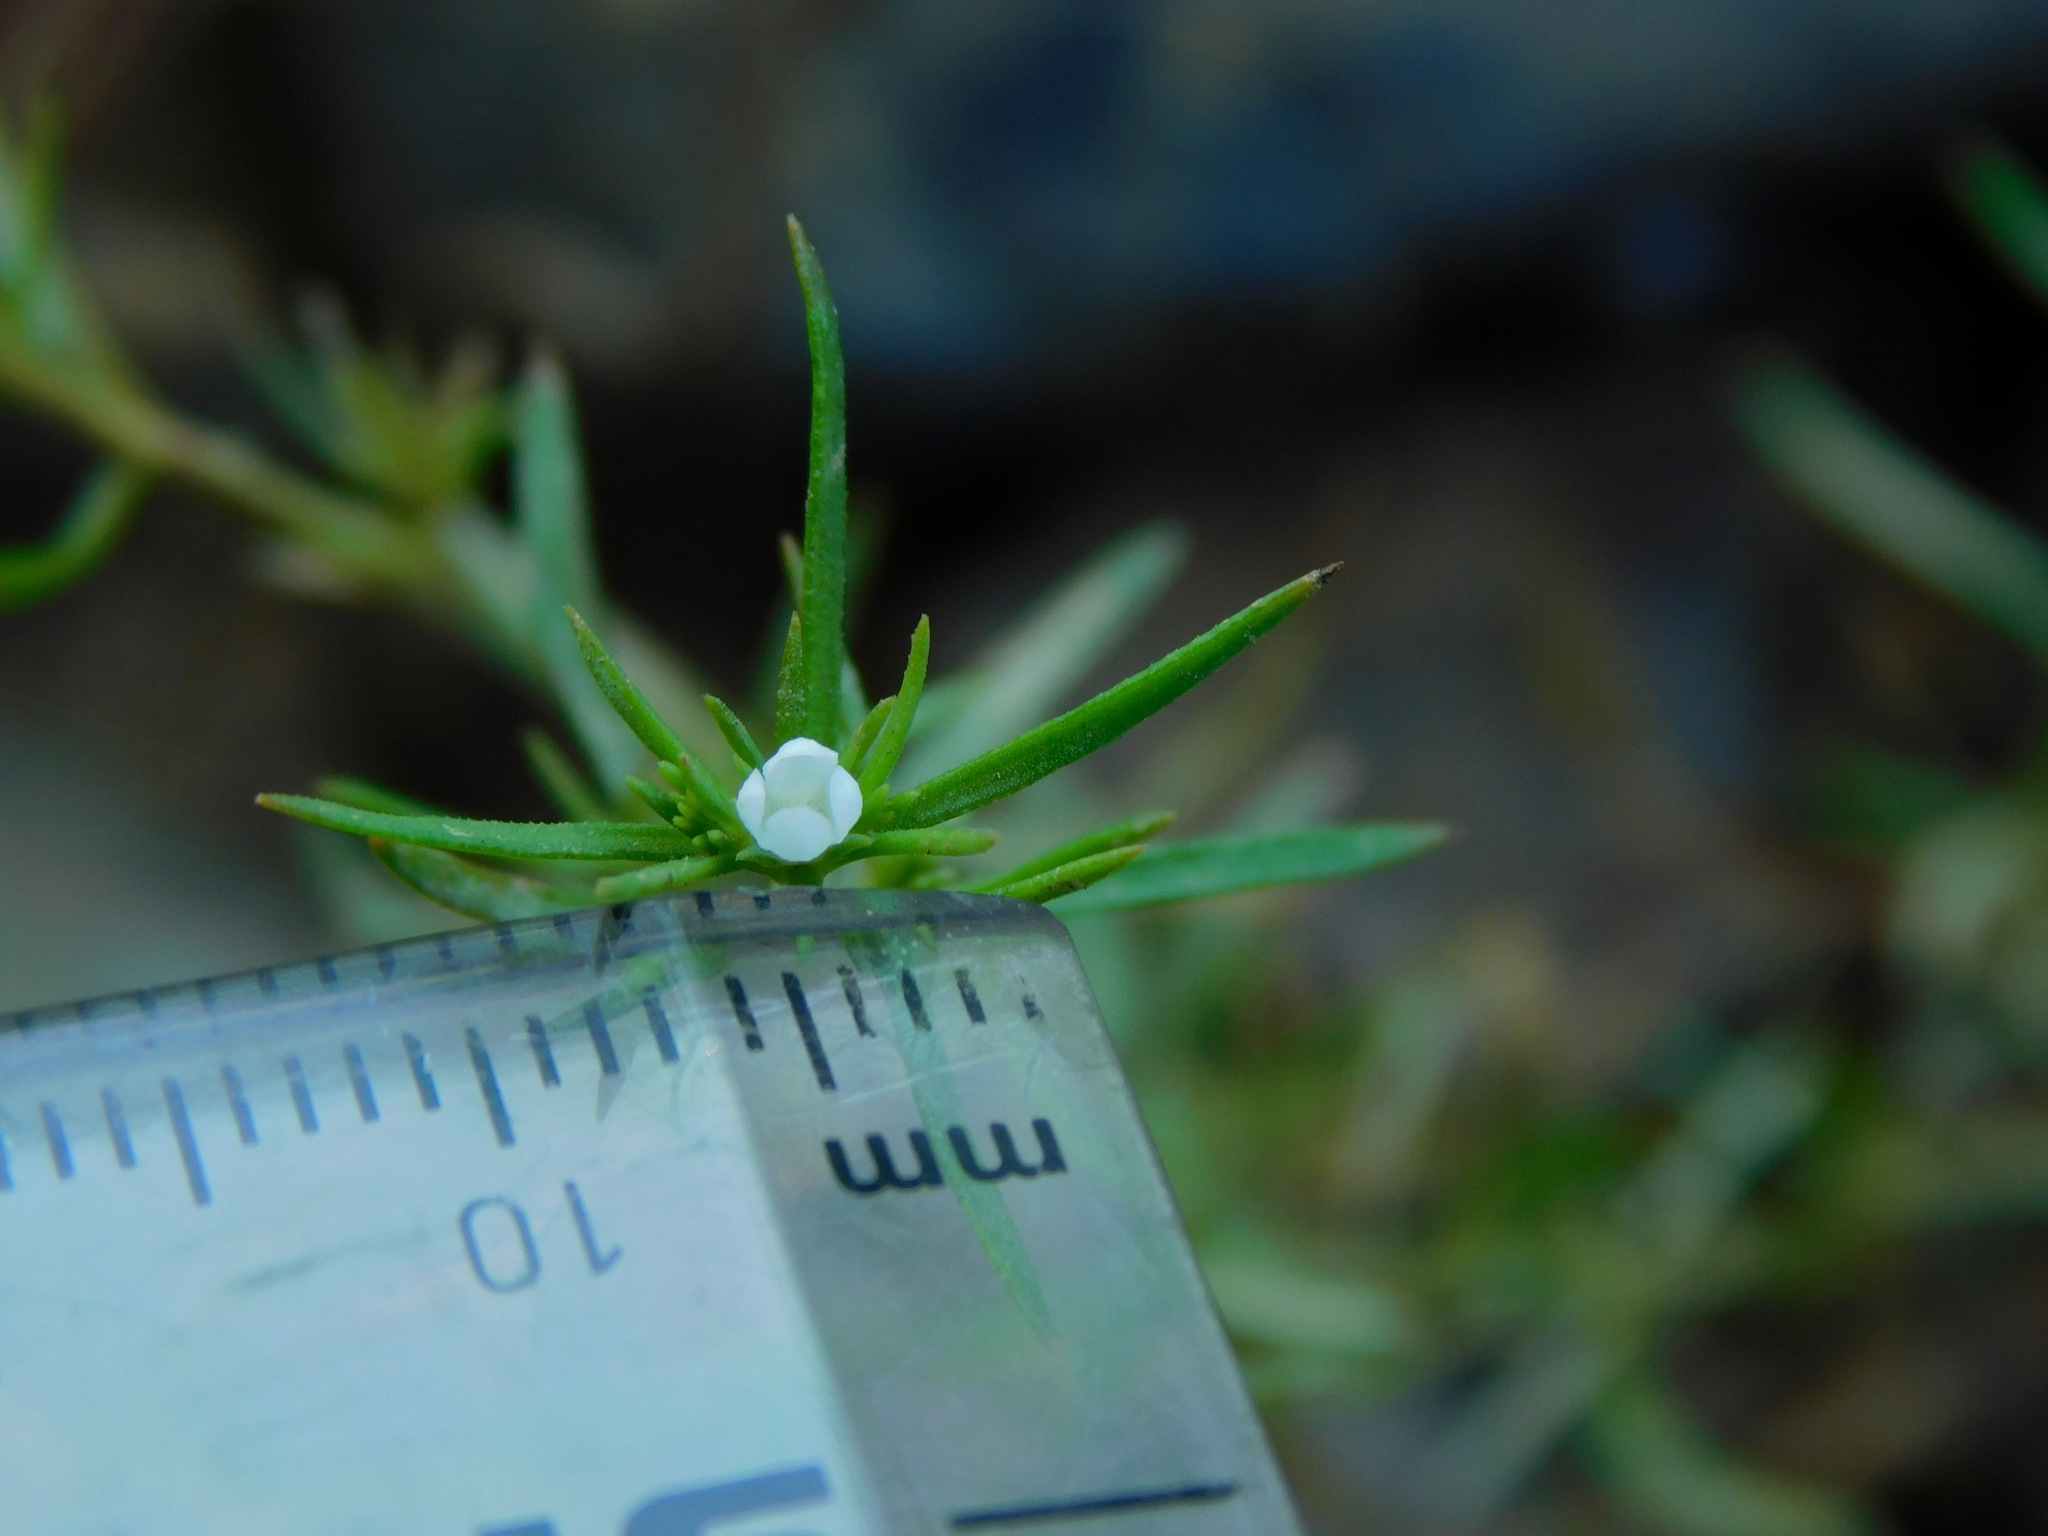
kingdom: Plantae
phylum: Tracheophyta
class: Magnoliopsida
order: Lamiales
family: Tetrachondraceae
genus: Polypremum
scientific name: Polypremum procumbens
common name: Juniper-leaf
